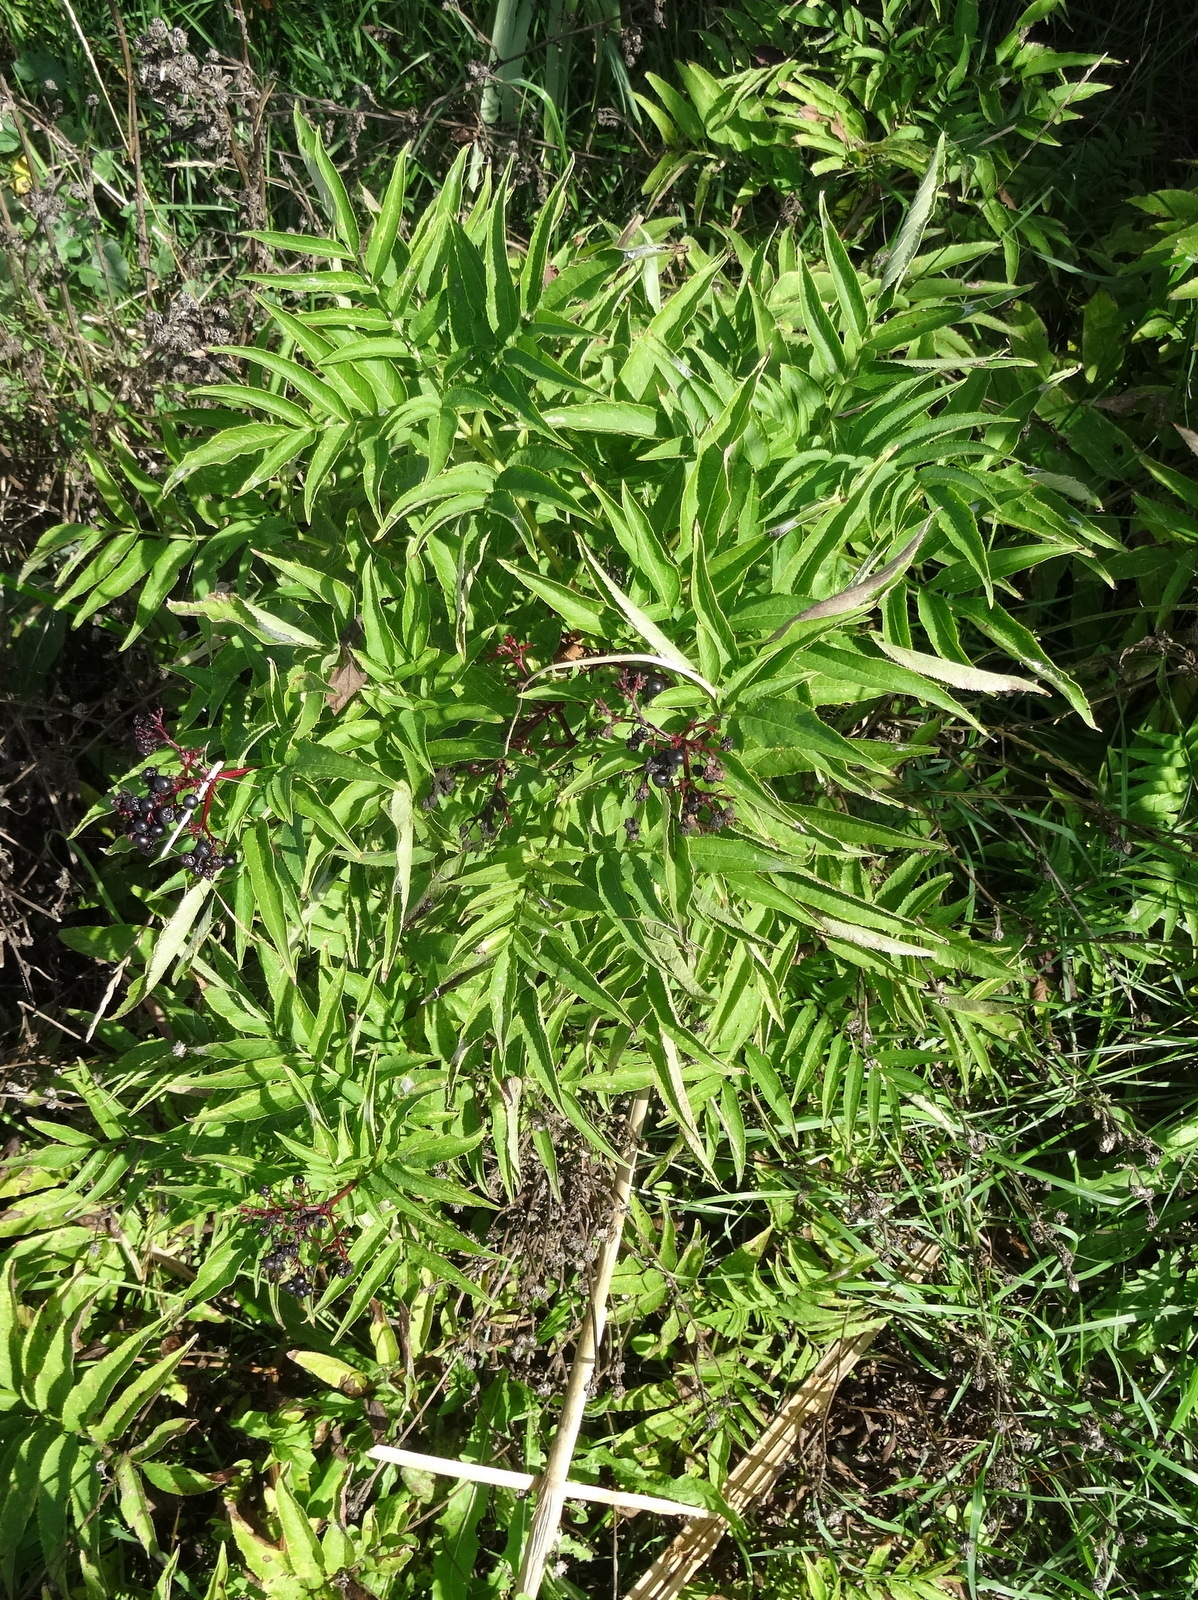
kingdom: Plantae
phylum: Tracheophyta
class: Magnoliopsida
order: Dipsacales
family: Viburnaceae
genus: Sambucus
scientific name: Sambucus ebulus
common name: Dwarf elder
